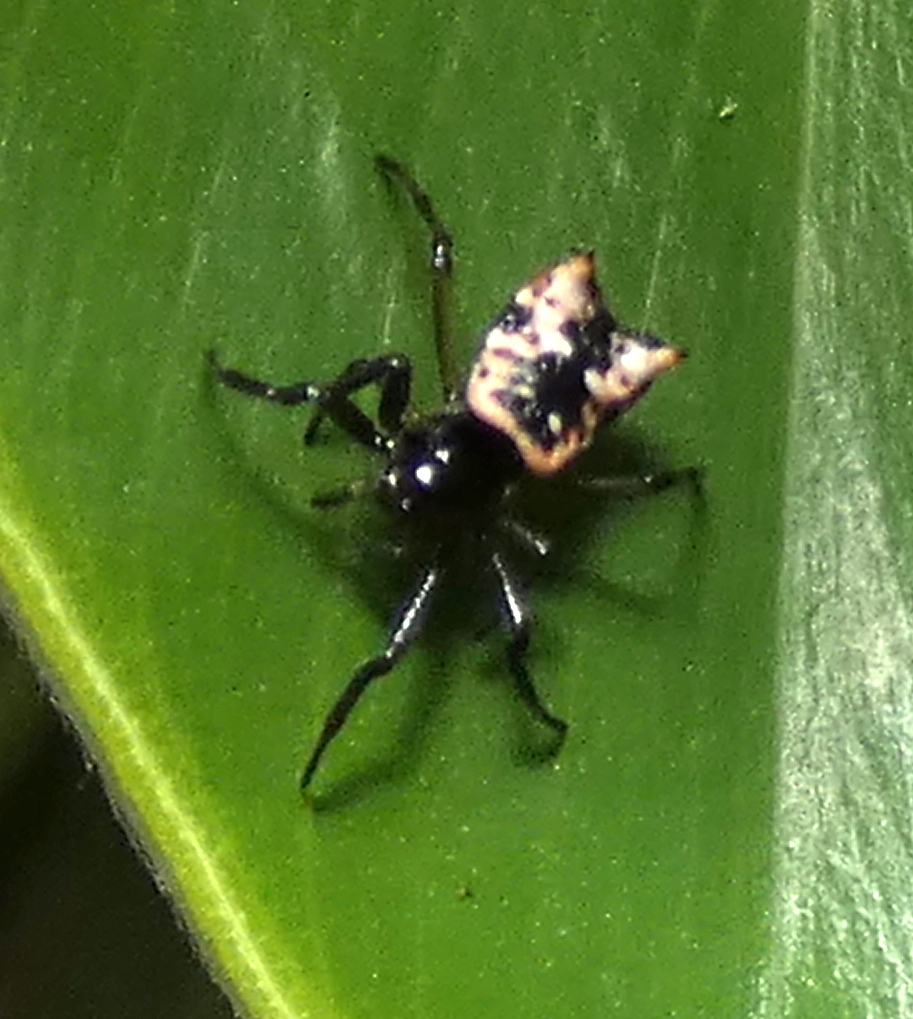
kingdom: Animalia
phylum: Arthropoda
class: Arachnida
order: Araneae
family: Araneidae
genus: Micrathena
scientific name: Micrathena patruelis
